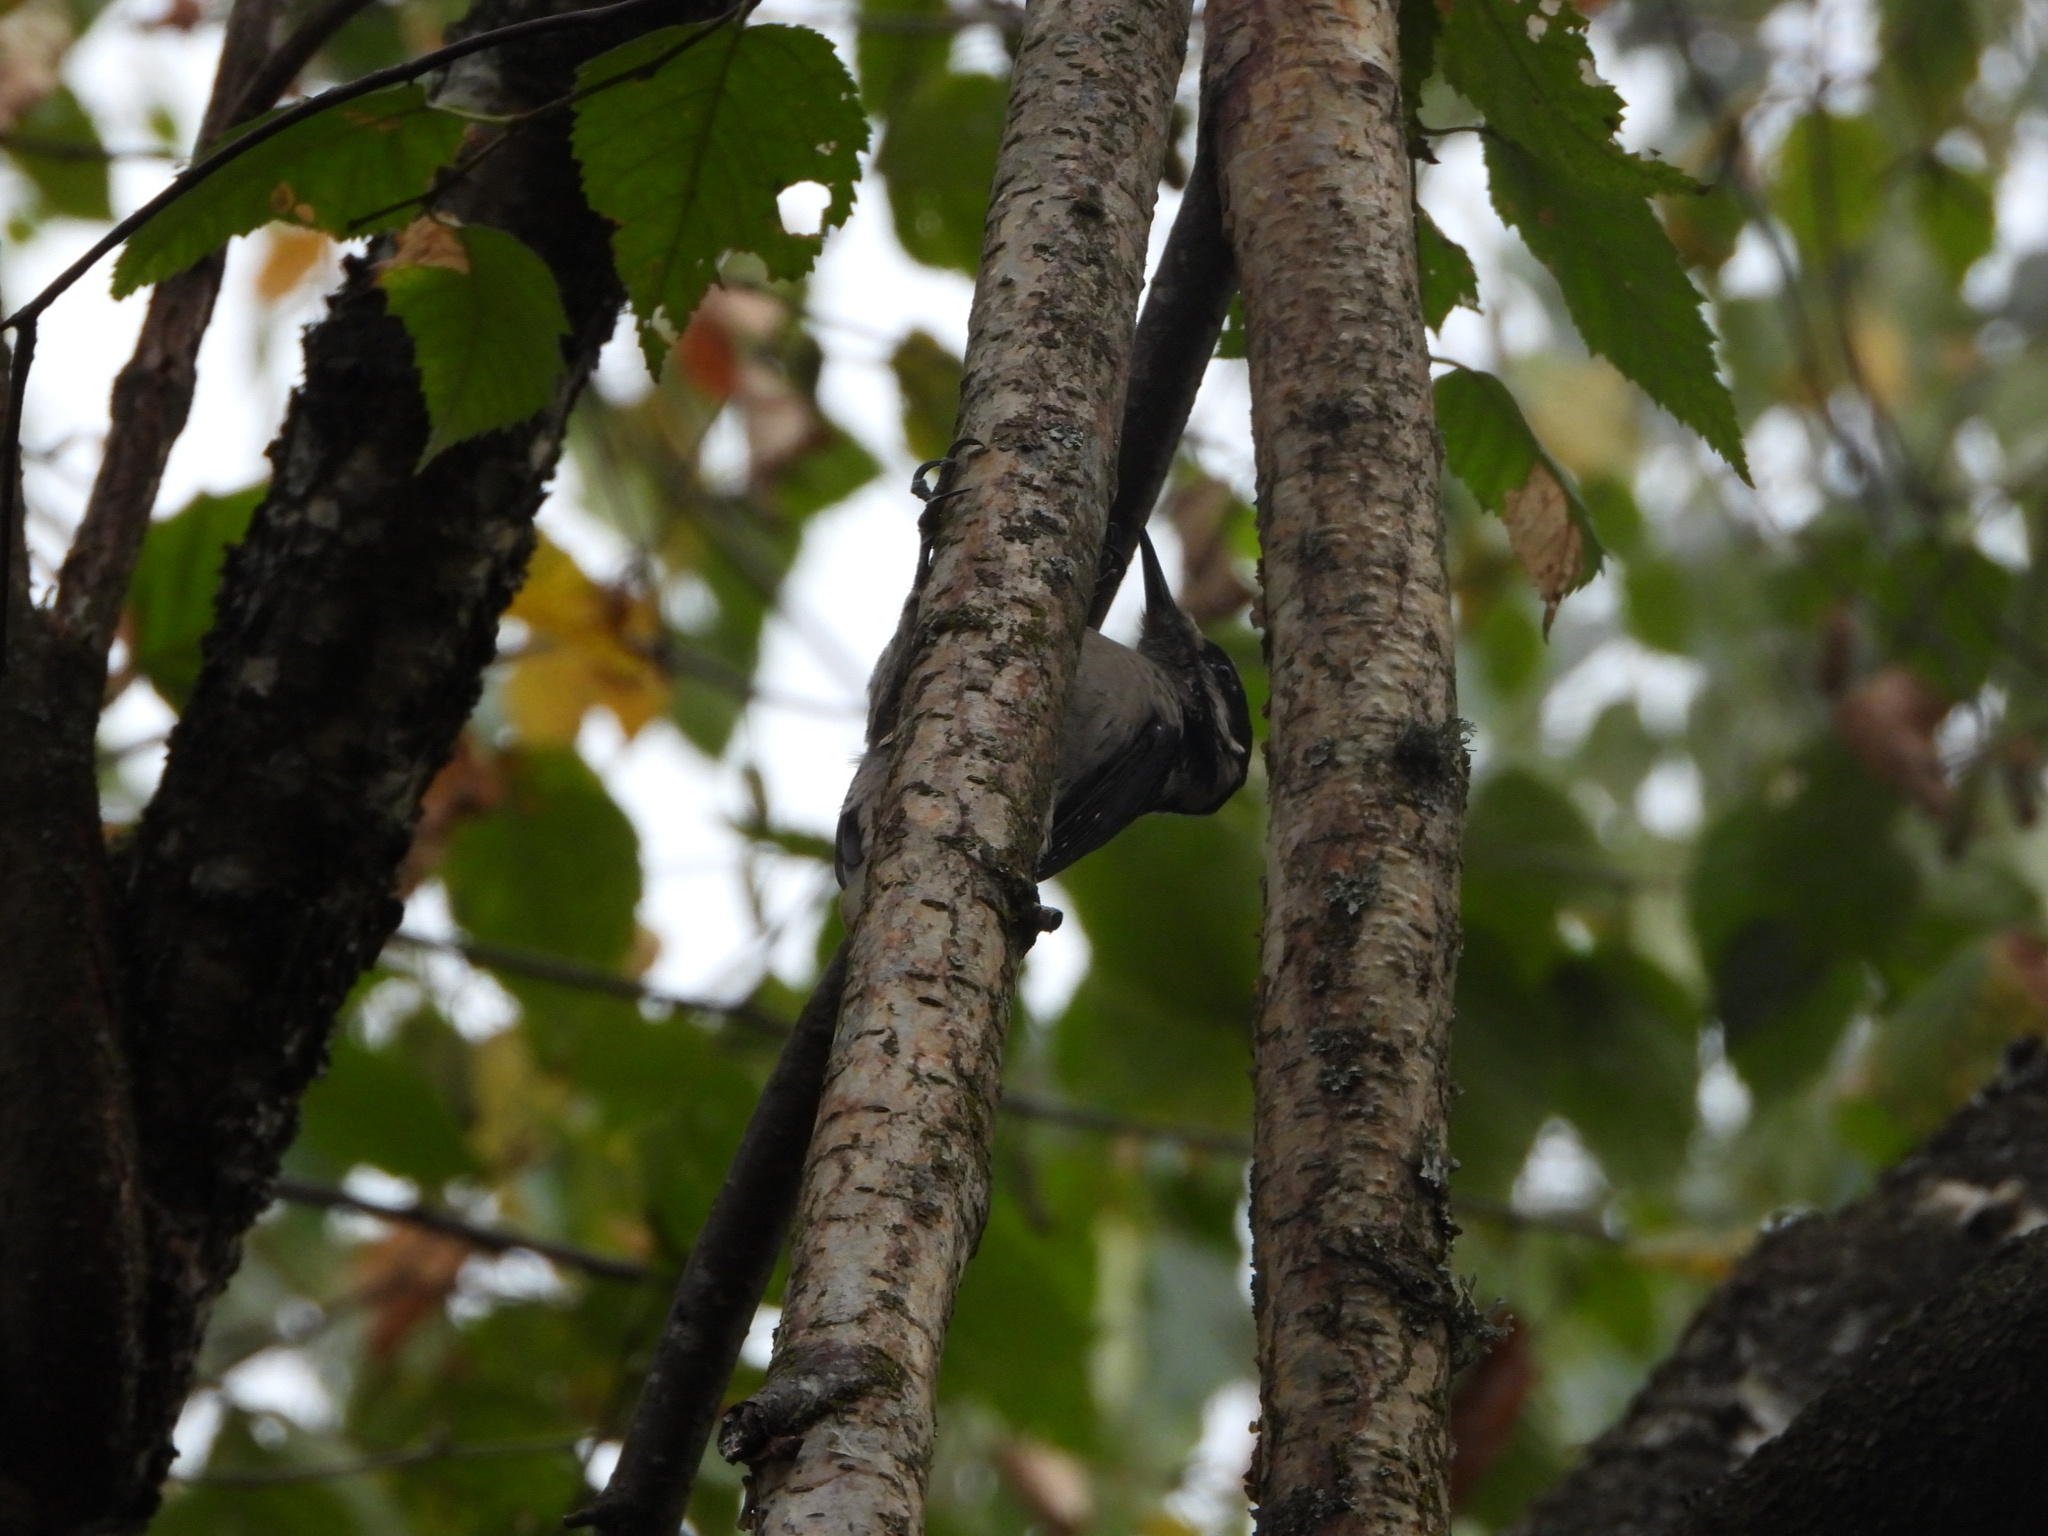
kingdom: Animalia
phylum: Chordata
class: Aves
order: Piciformes
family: Picidae
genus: Leuconotopicus
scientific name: Leuconotopicus villosus
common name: Hairy woodpecker
